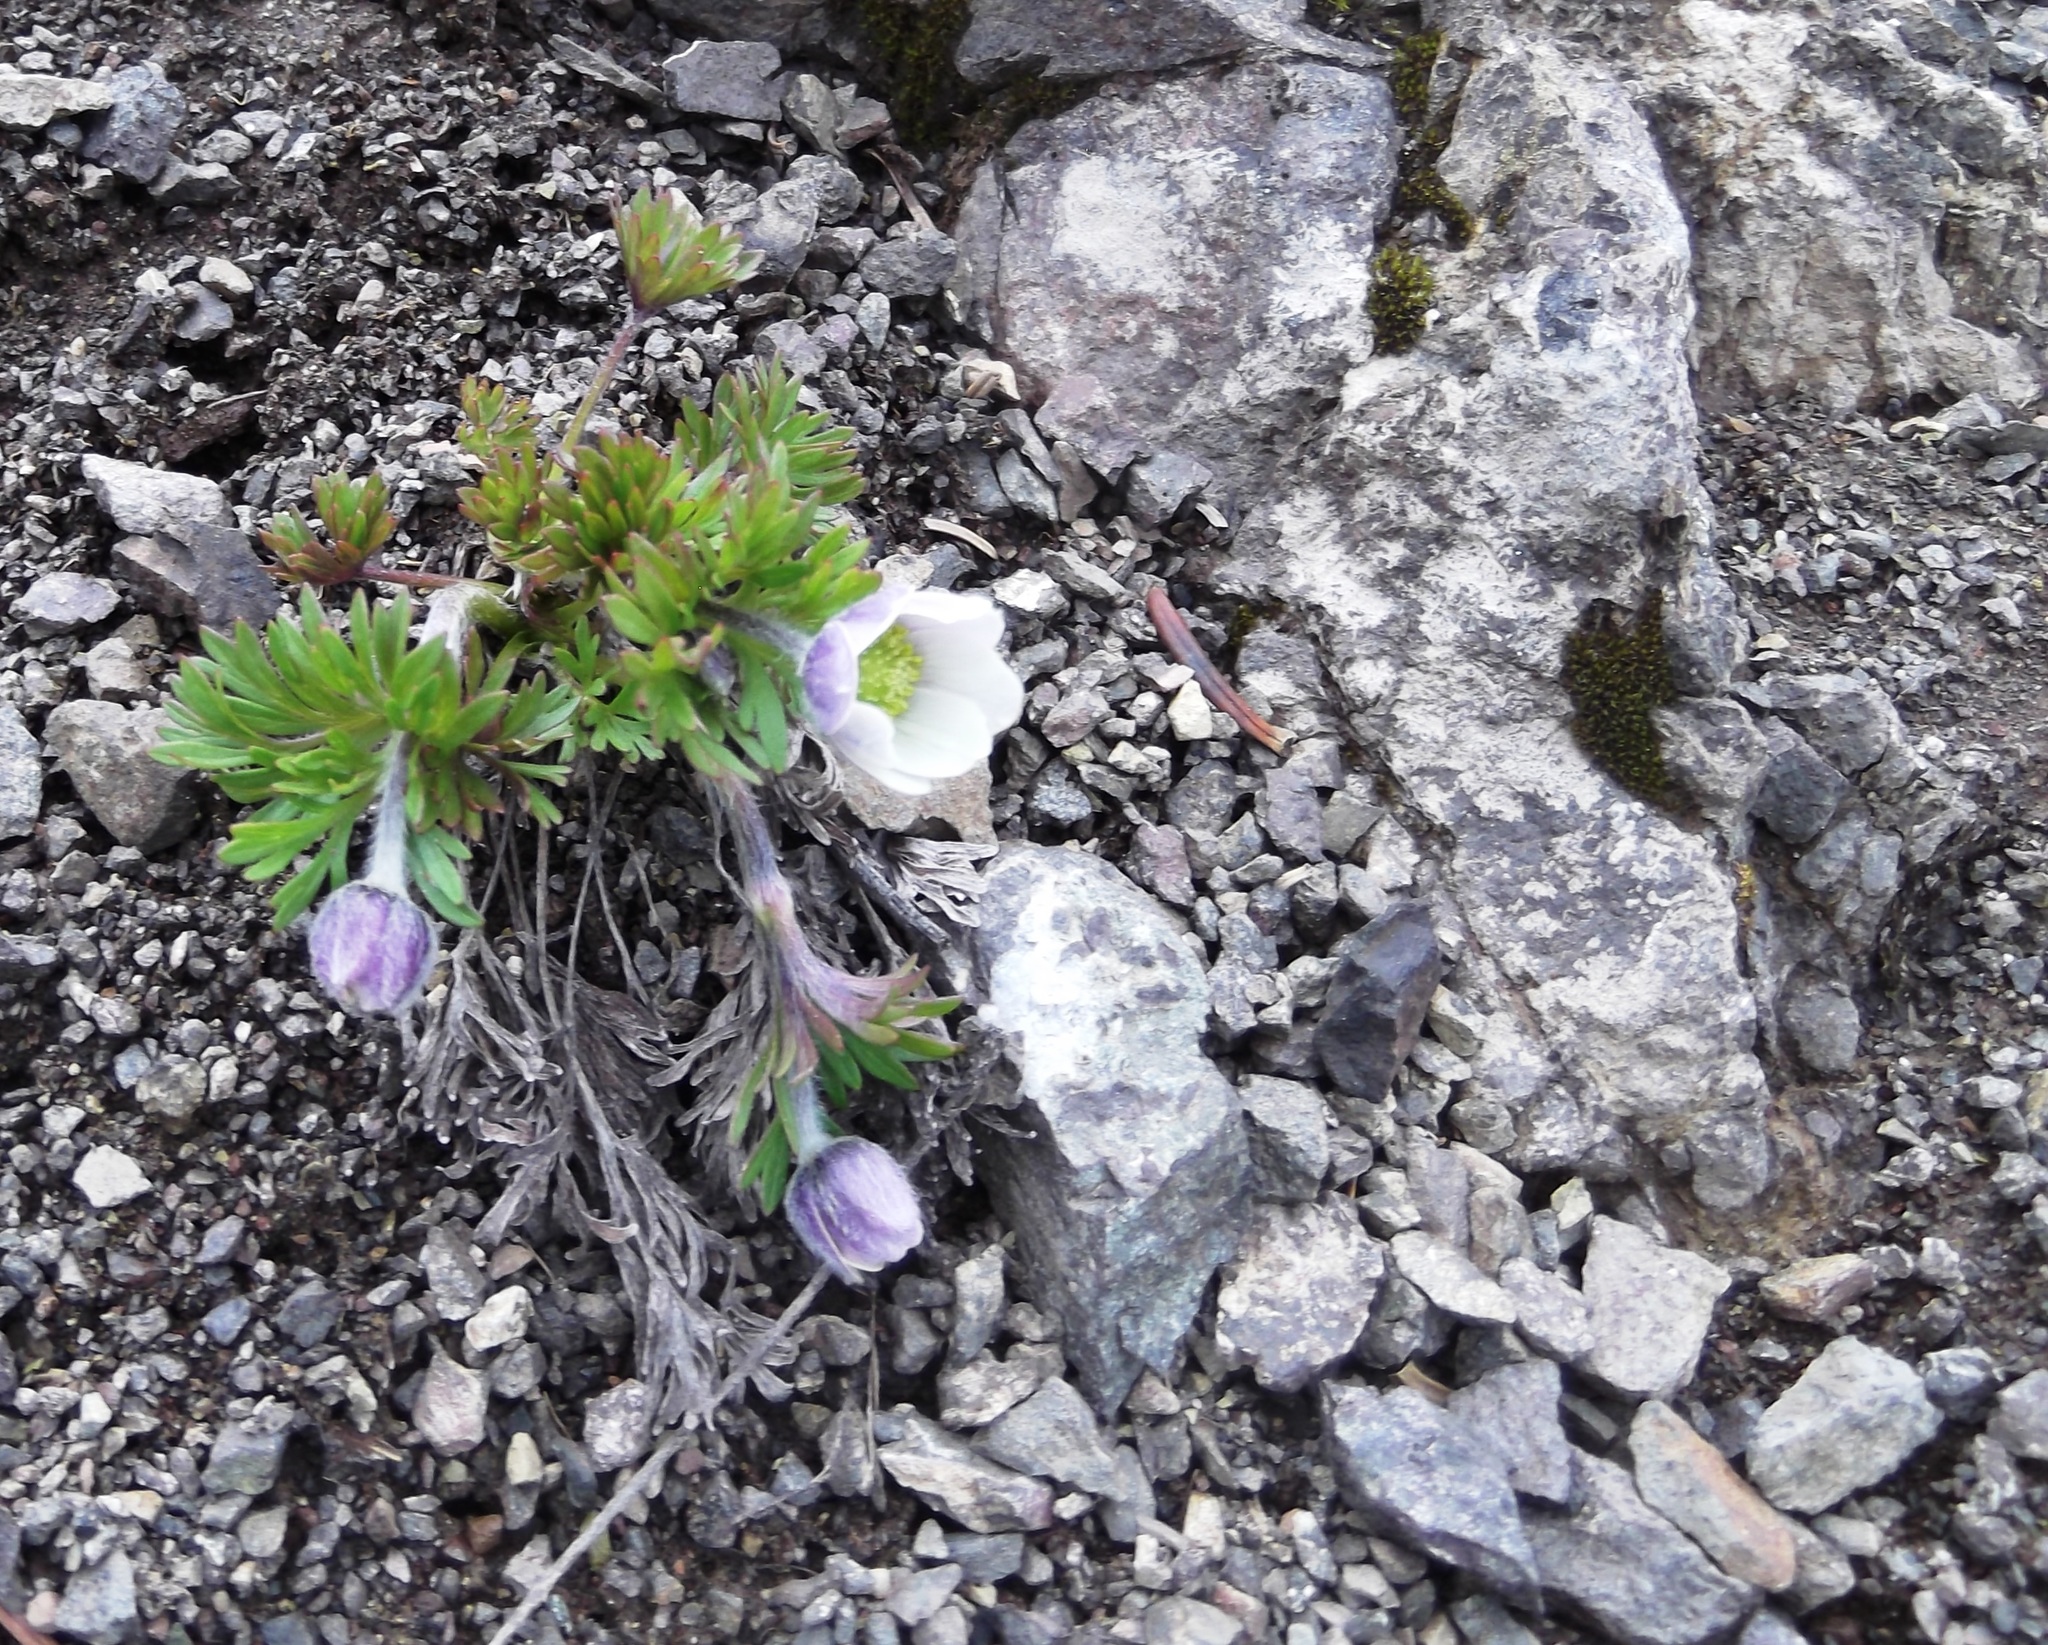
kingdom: Plantae
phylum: Tracheophyta
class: Magnoliopsida
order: Ranunculales
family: Ranunculaceae
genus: Anemone
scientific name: Anemone drummondii
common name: Drummond's anemone
